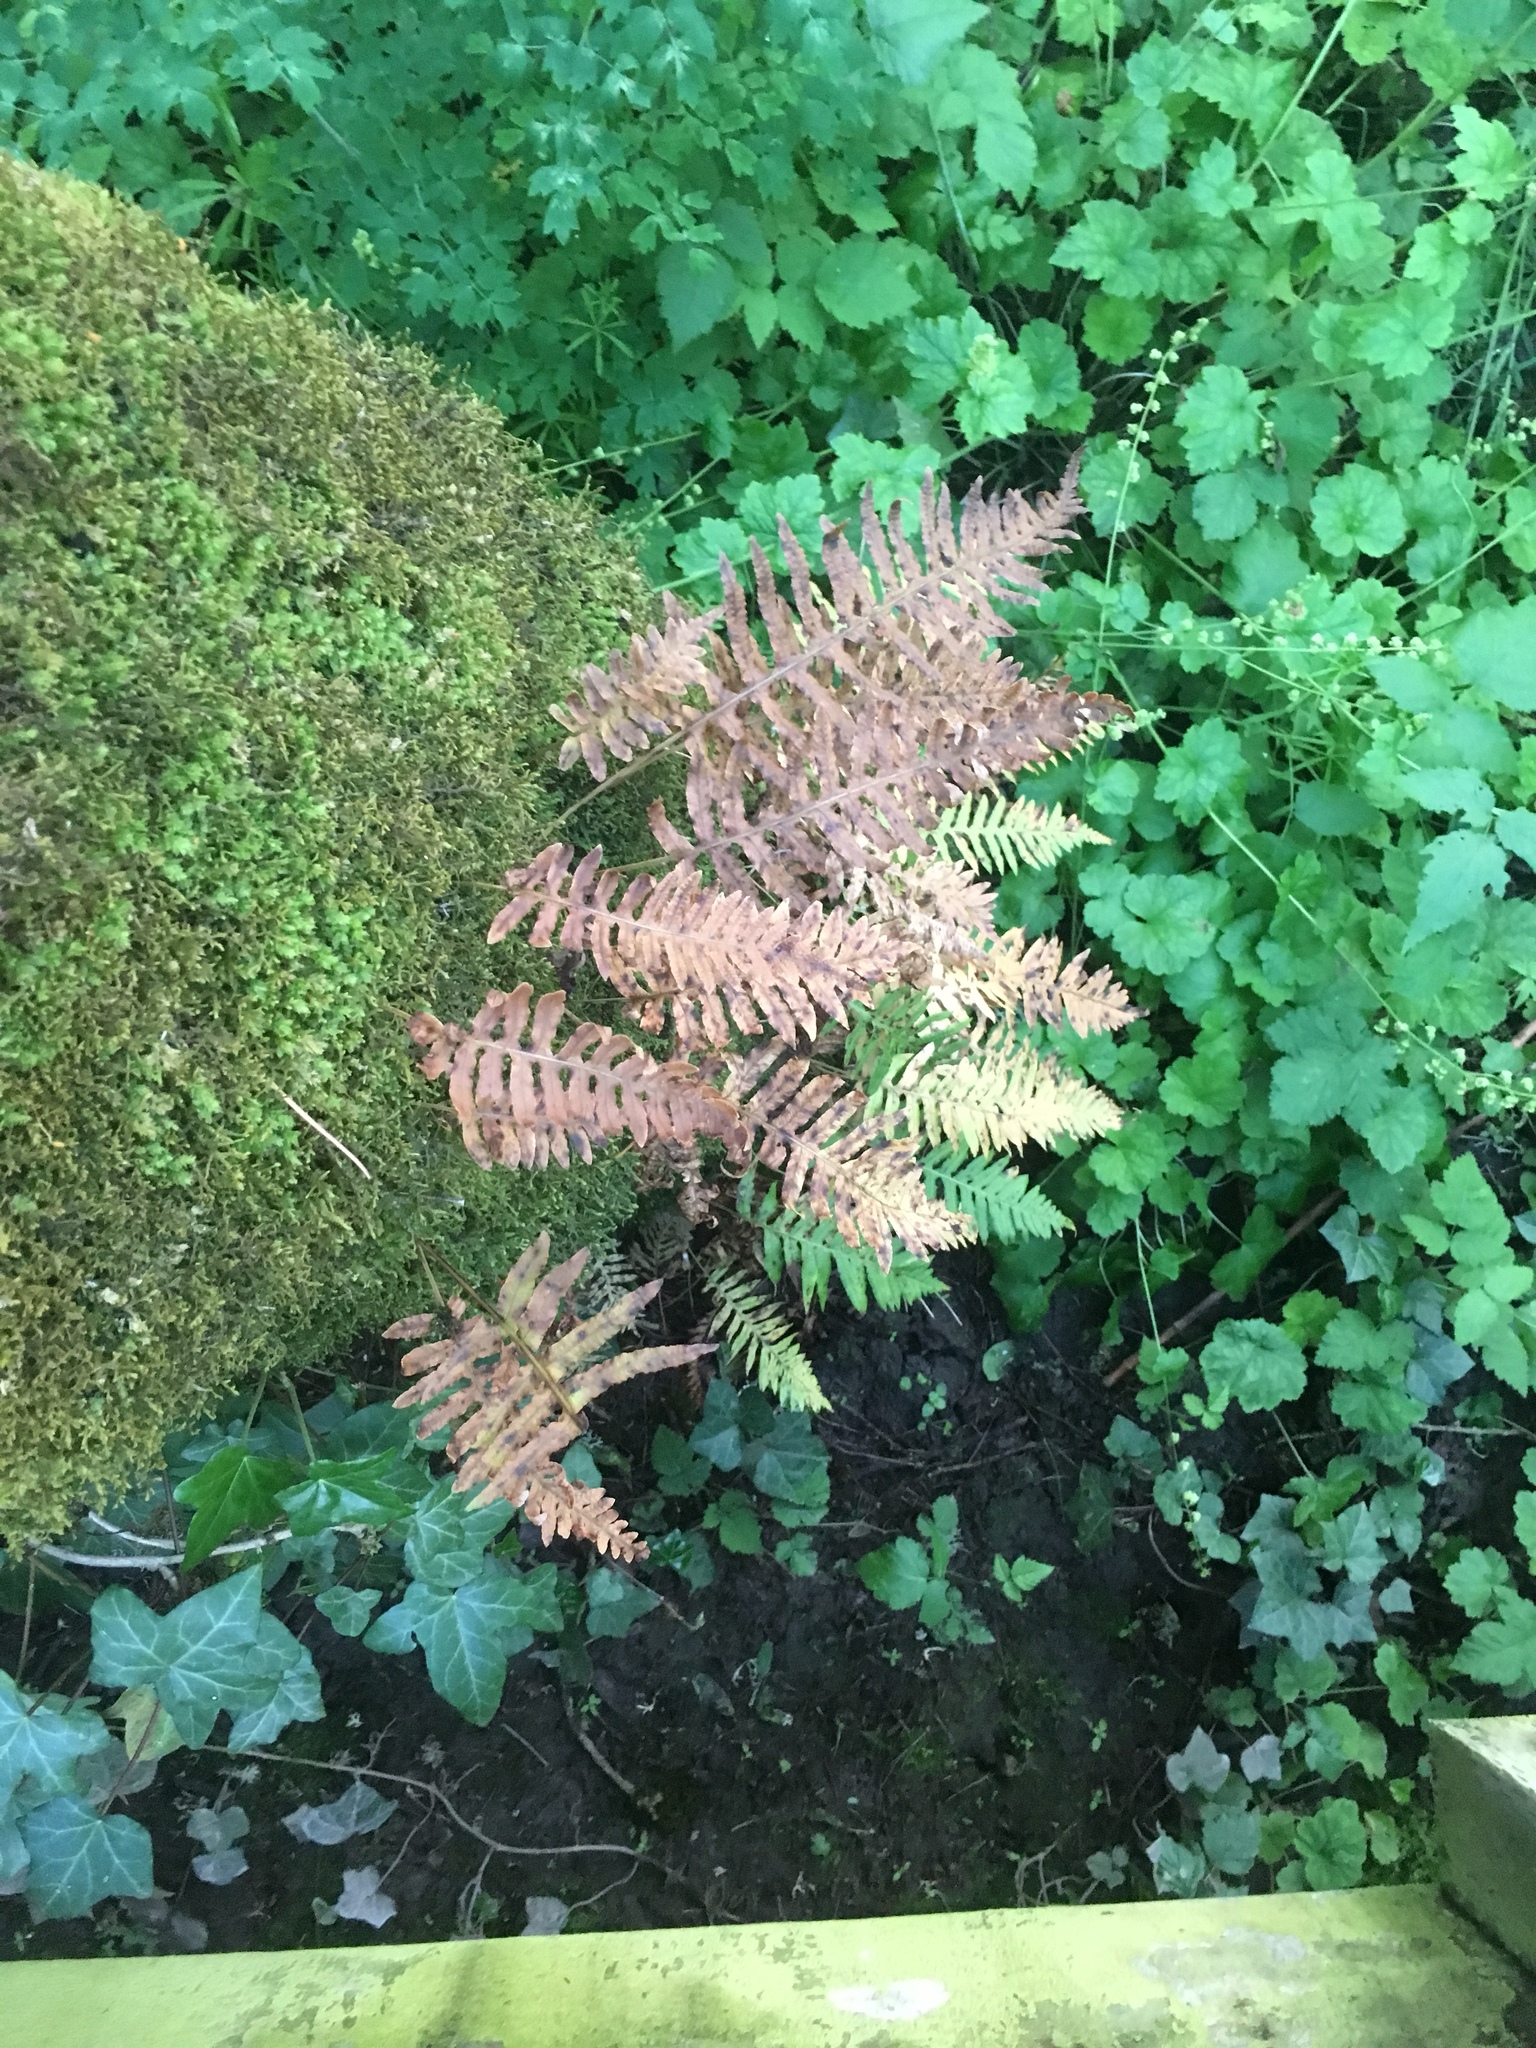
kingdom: Plantae
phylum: Tracheophyta
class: Polypodiopsida
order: Polypodiales
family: Polypodiaceae
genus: Polypodium
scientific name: Polypodium glycyrrhiza
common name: Licorice fern
